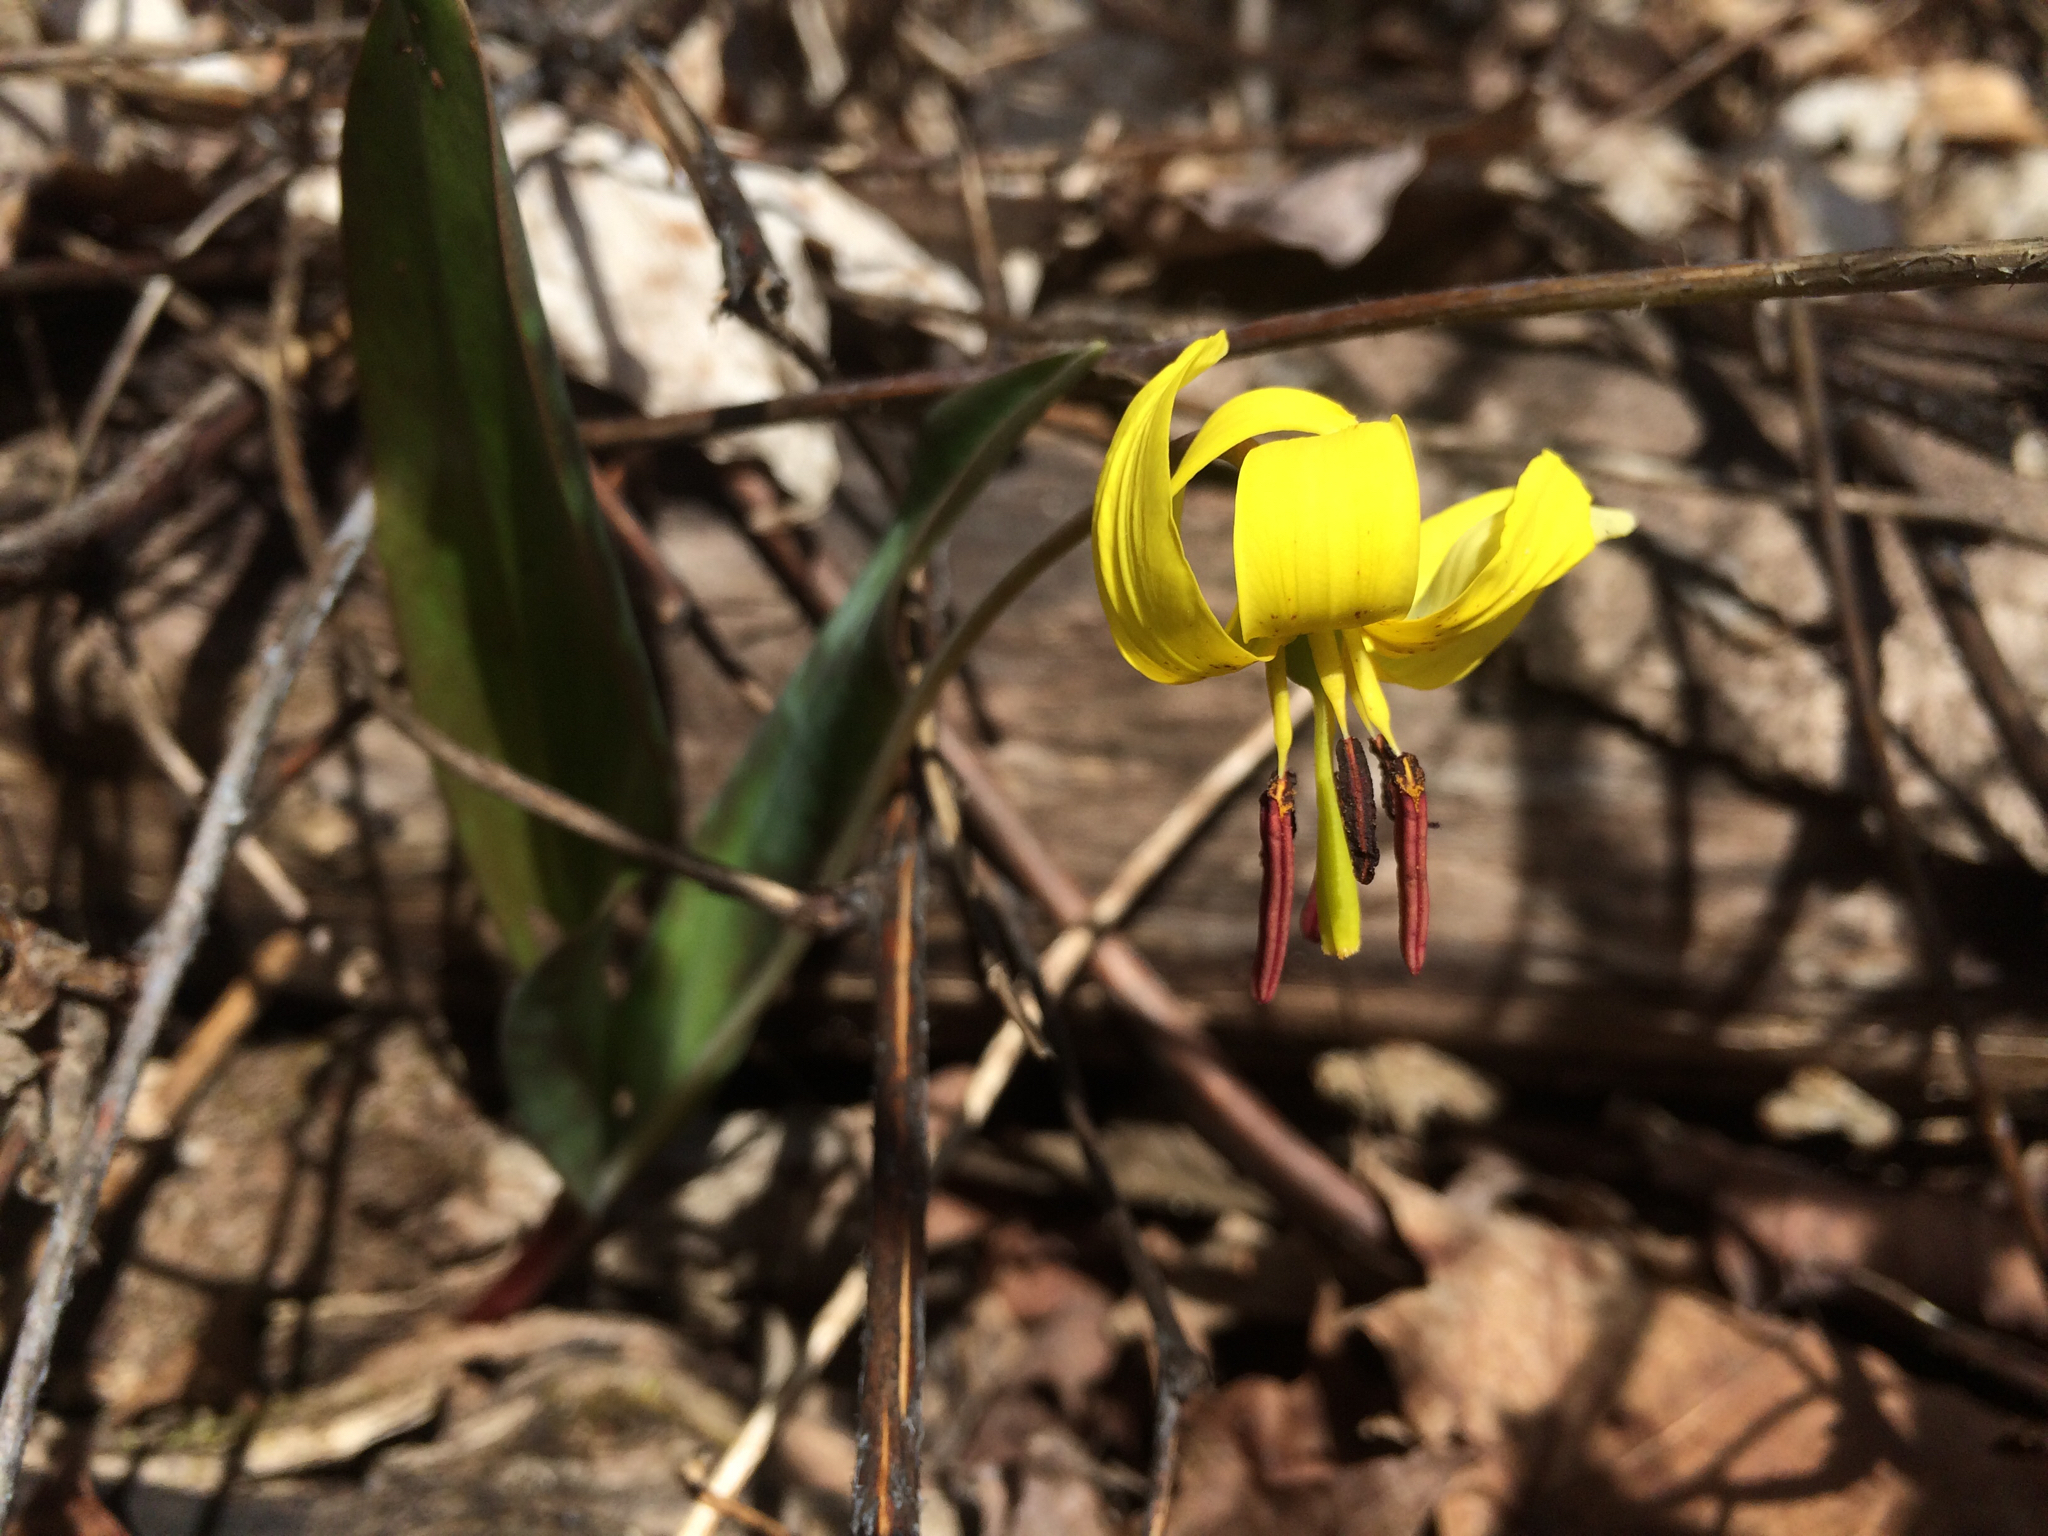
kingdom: Plantae
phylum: Tracheophyta
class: Liliopsida
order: Liliales
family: Liliaceae
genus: Erythronium
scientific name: Erythronium americanum
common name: Yellow adder's-tongue
